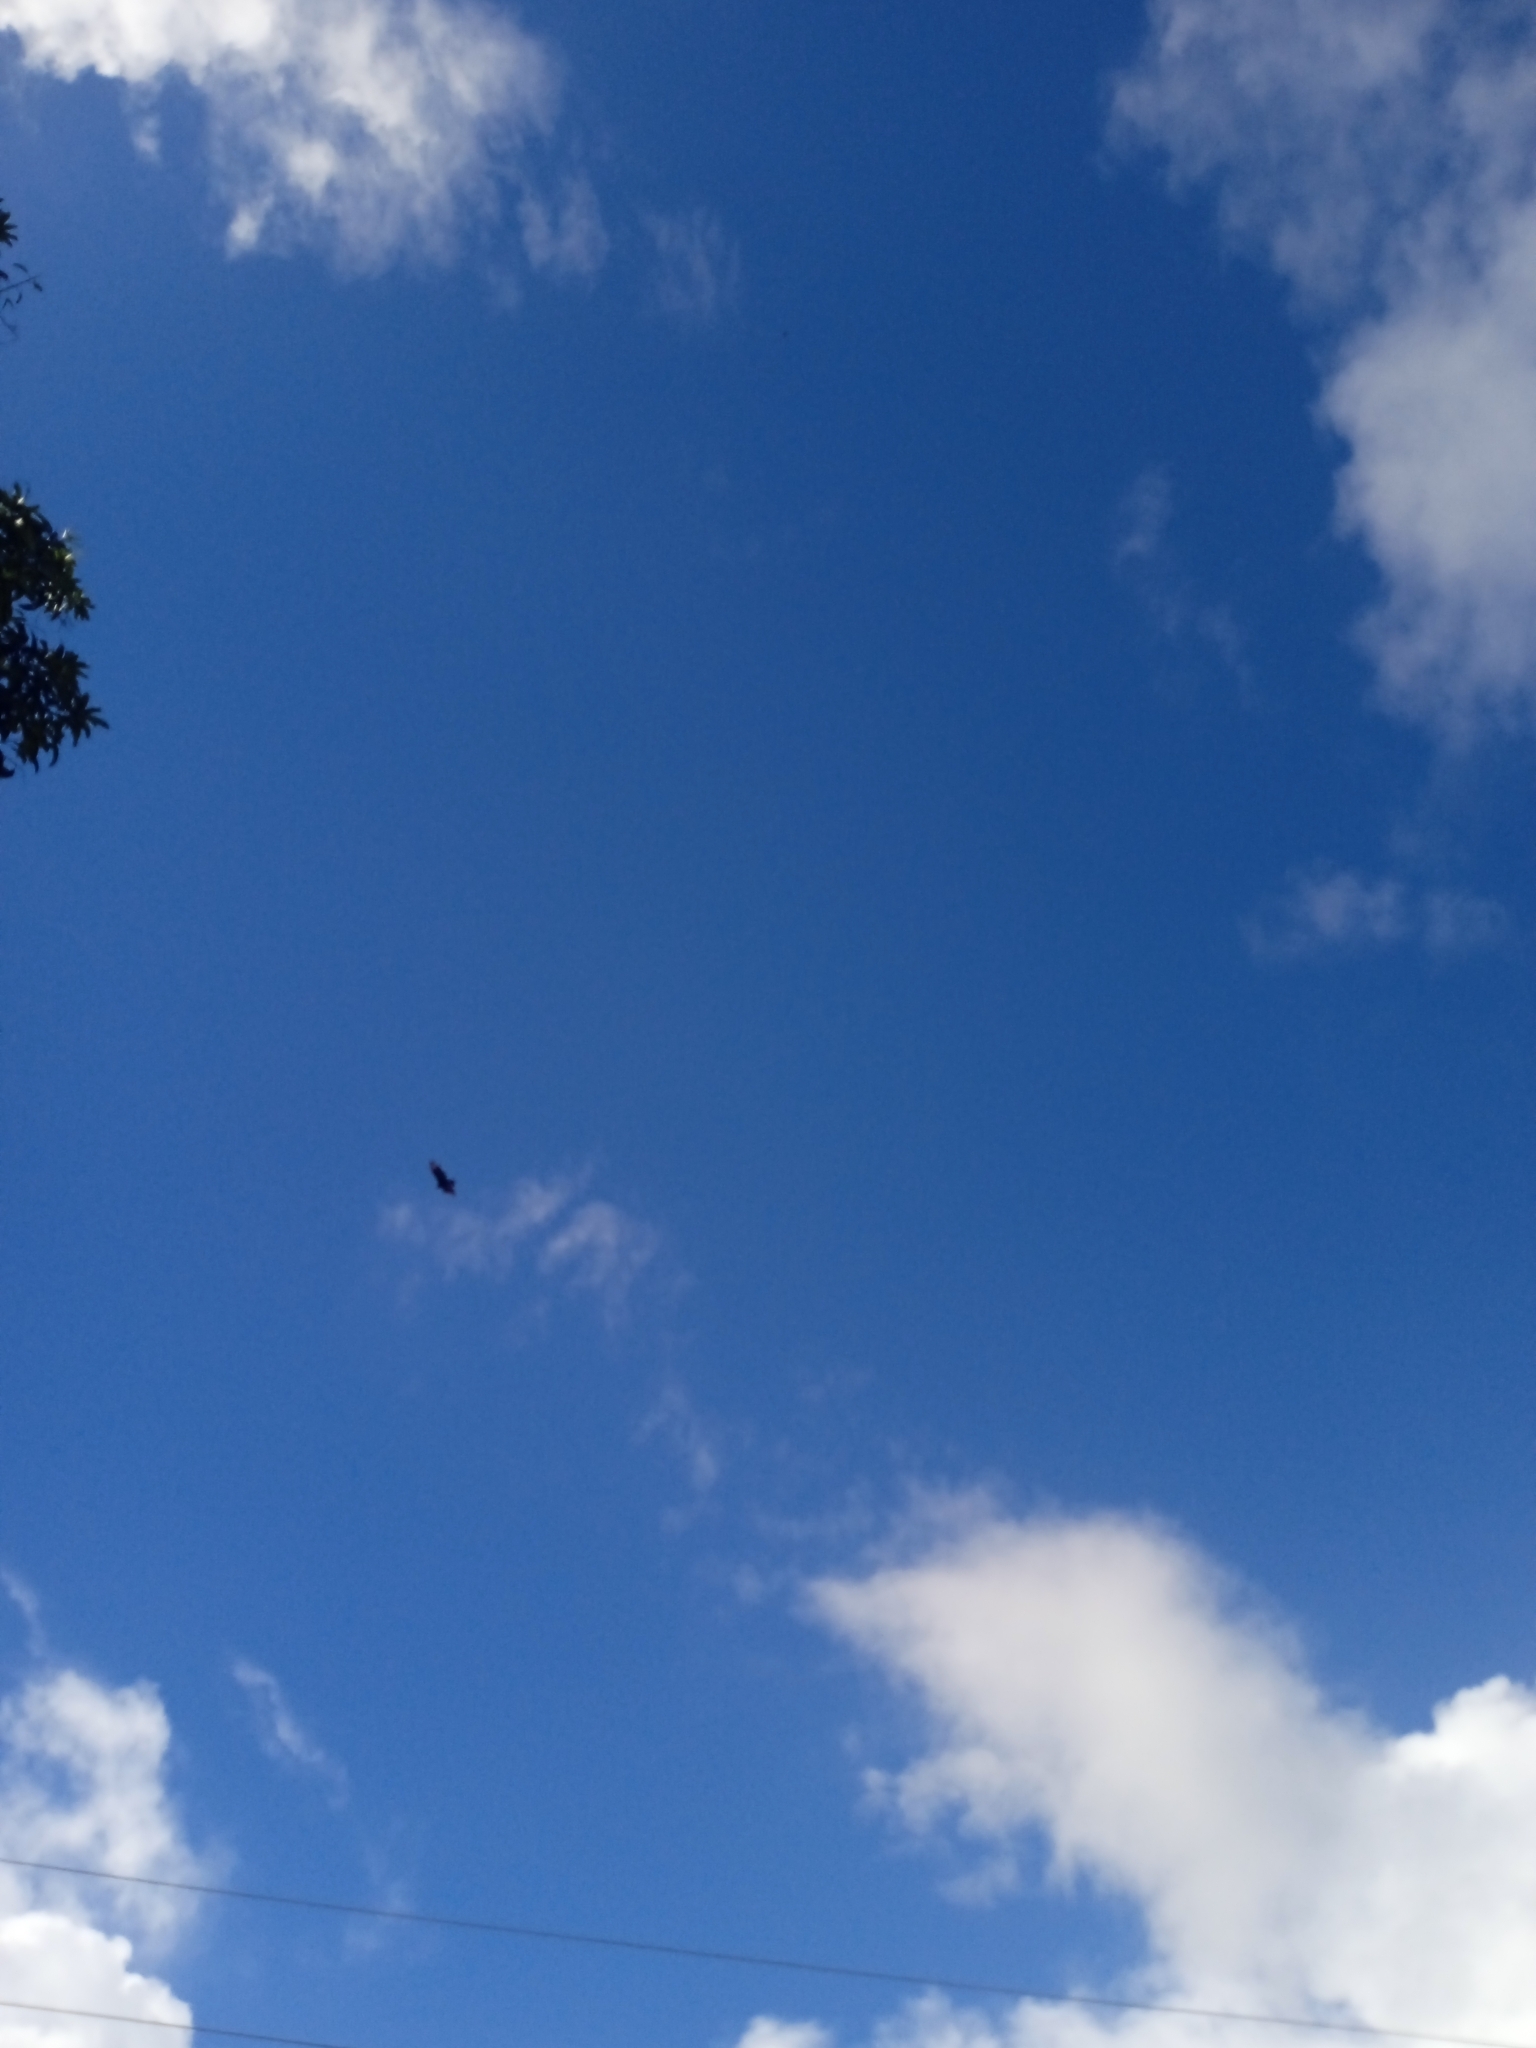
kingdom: Animalia
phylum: Chordata
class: Aves
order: Accipitriformes
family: Cathartidae
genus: Coragyps
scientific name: Coragyps atratus
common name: Black vulture
